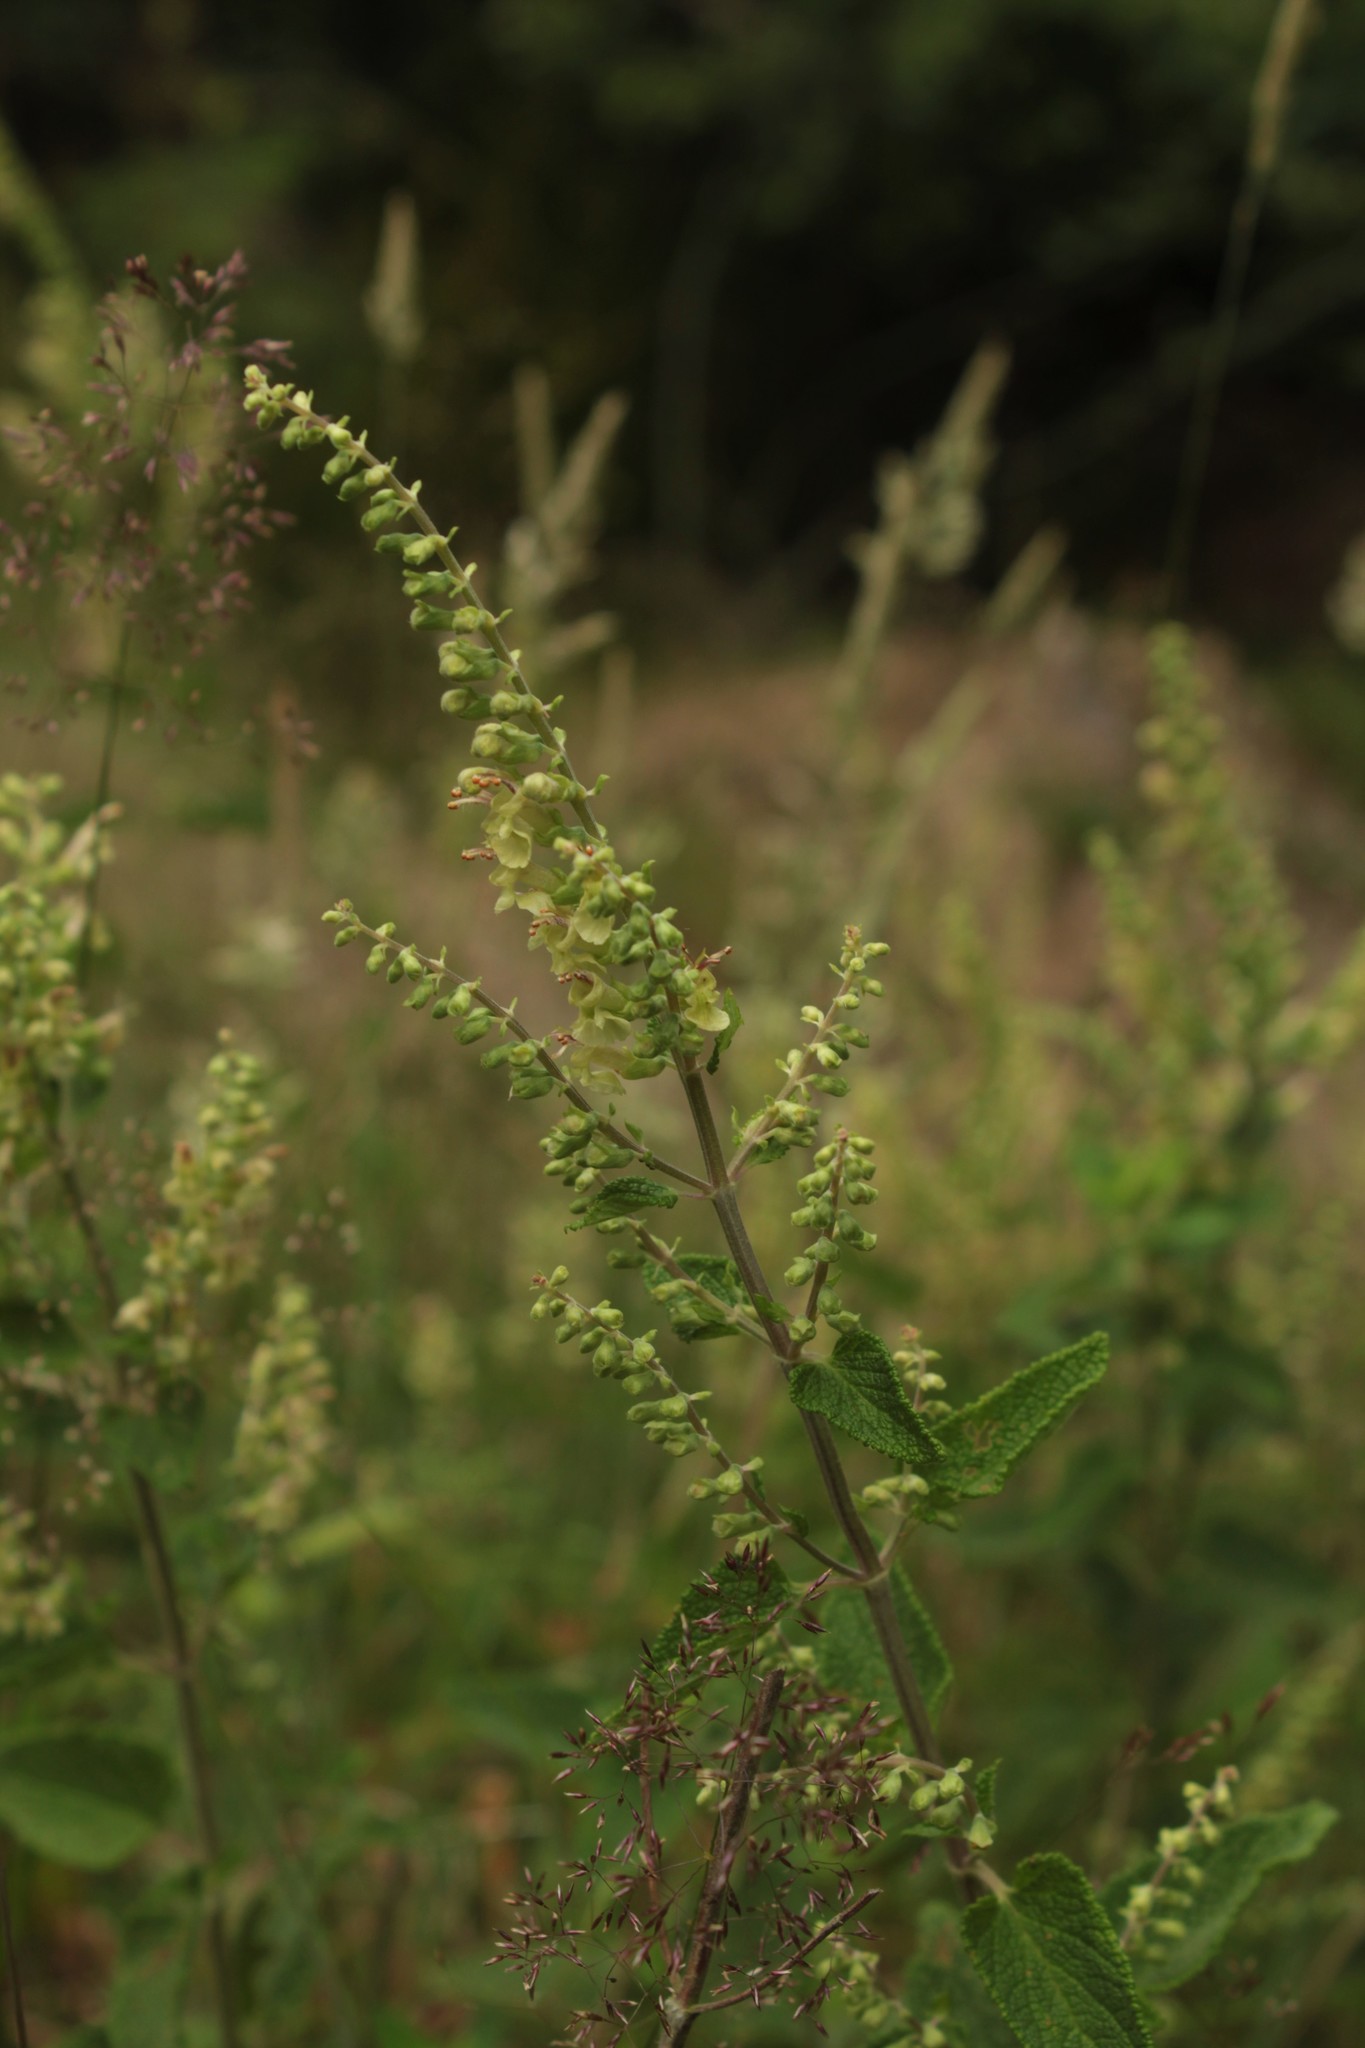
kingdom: Plantae
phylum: Tracheophyta
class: Magnoliopsida
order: Lamiales
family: Lamiaceae
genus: Teucrium
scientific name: Teucrium scorodonia
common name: Woodland germander
